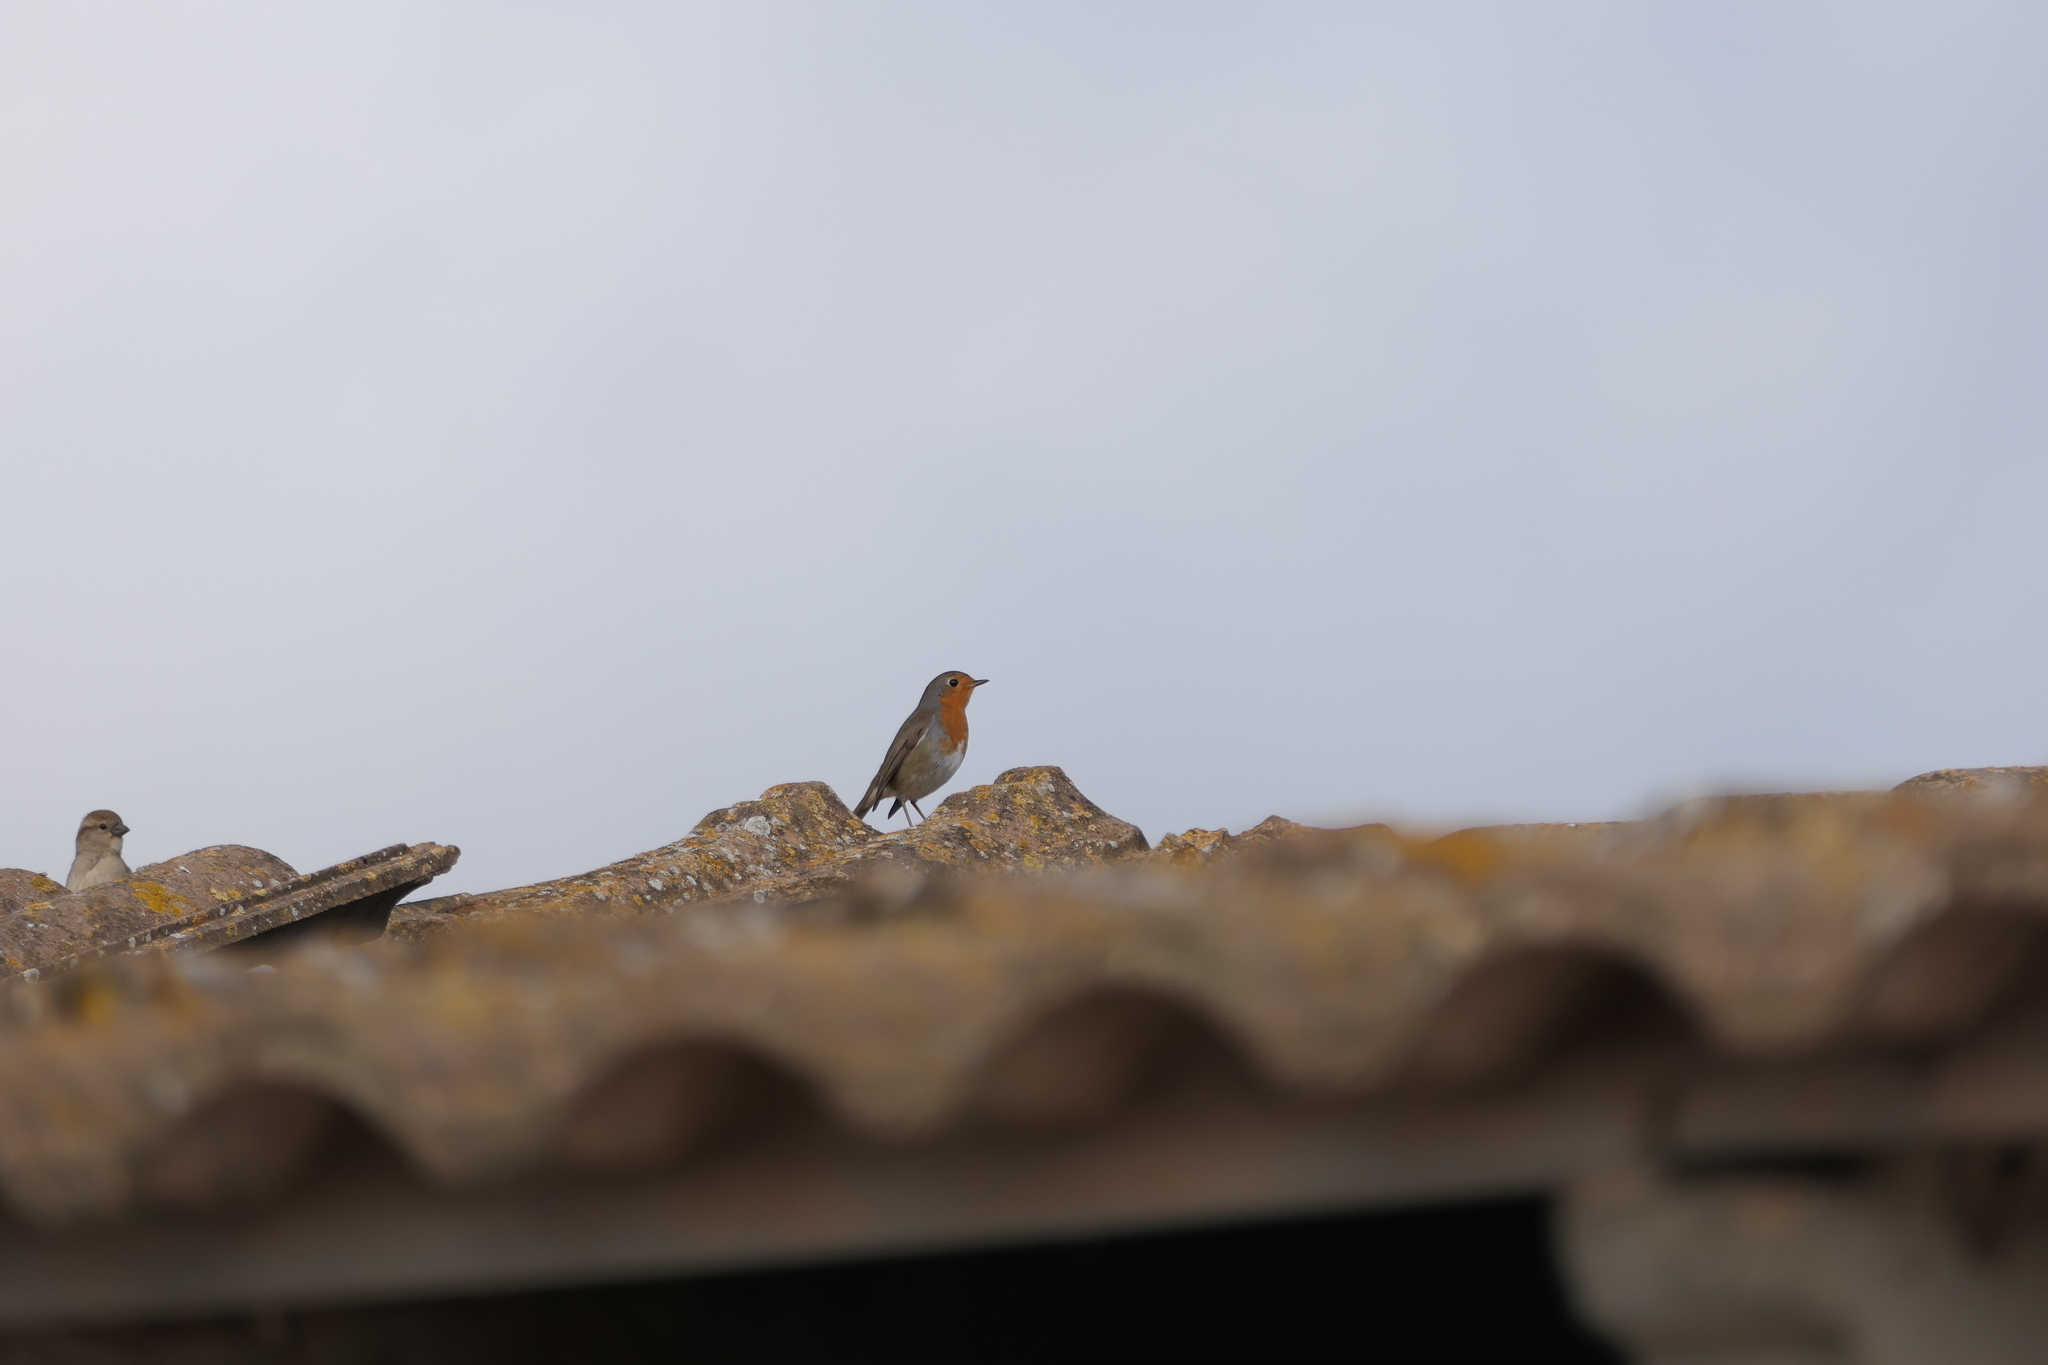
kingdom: Animalia
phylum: Chordata
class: Aves
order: Passeriformes
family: Muscicapidae
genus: Erithacus
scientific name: Erithacus rubecula
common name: European robin
